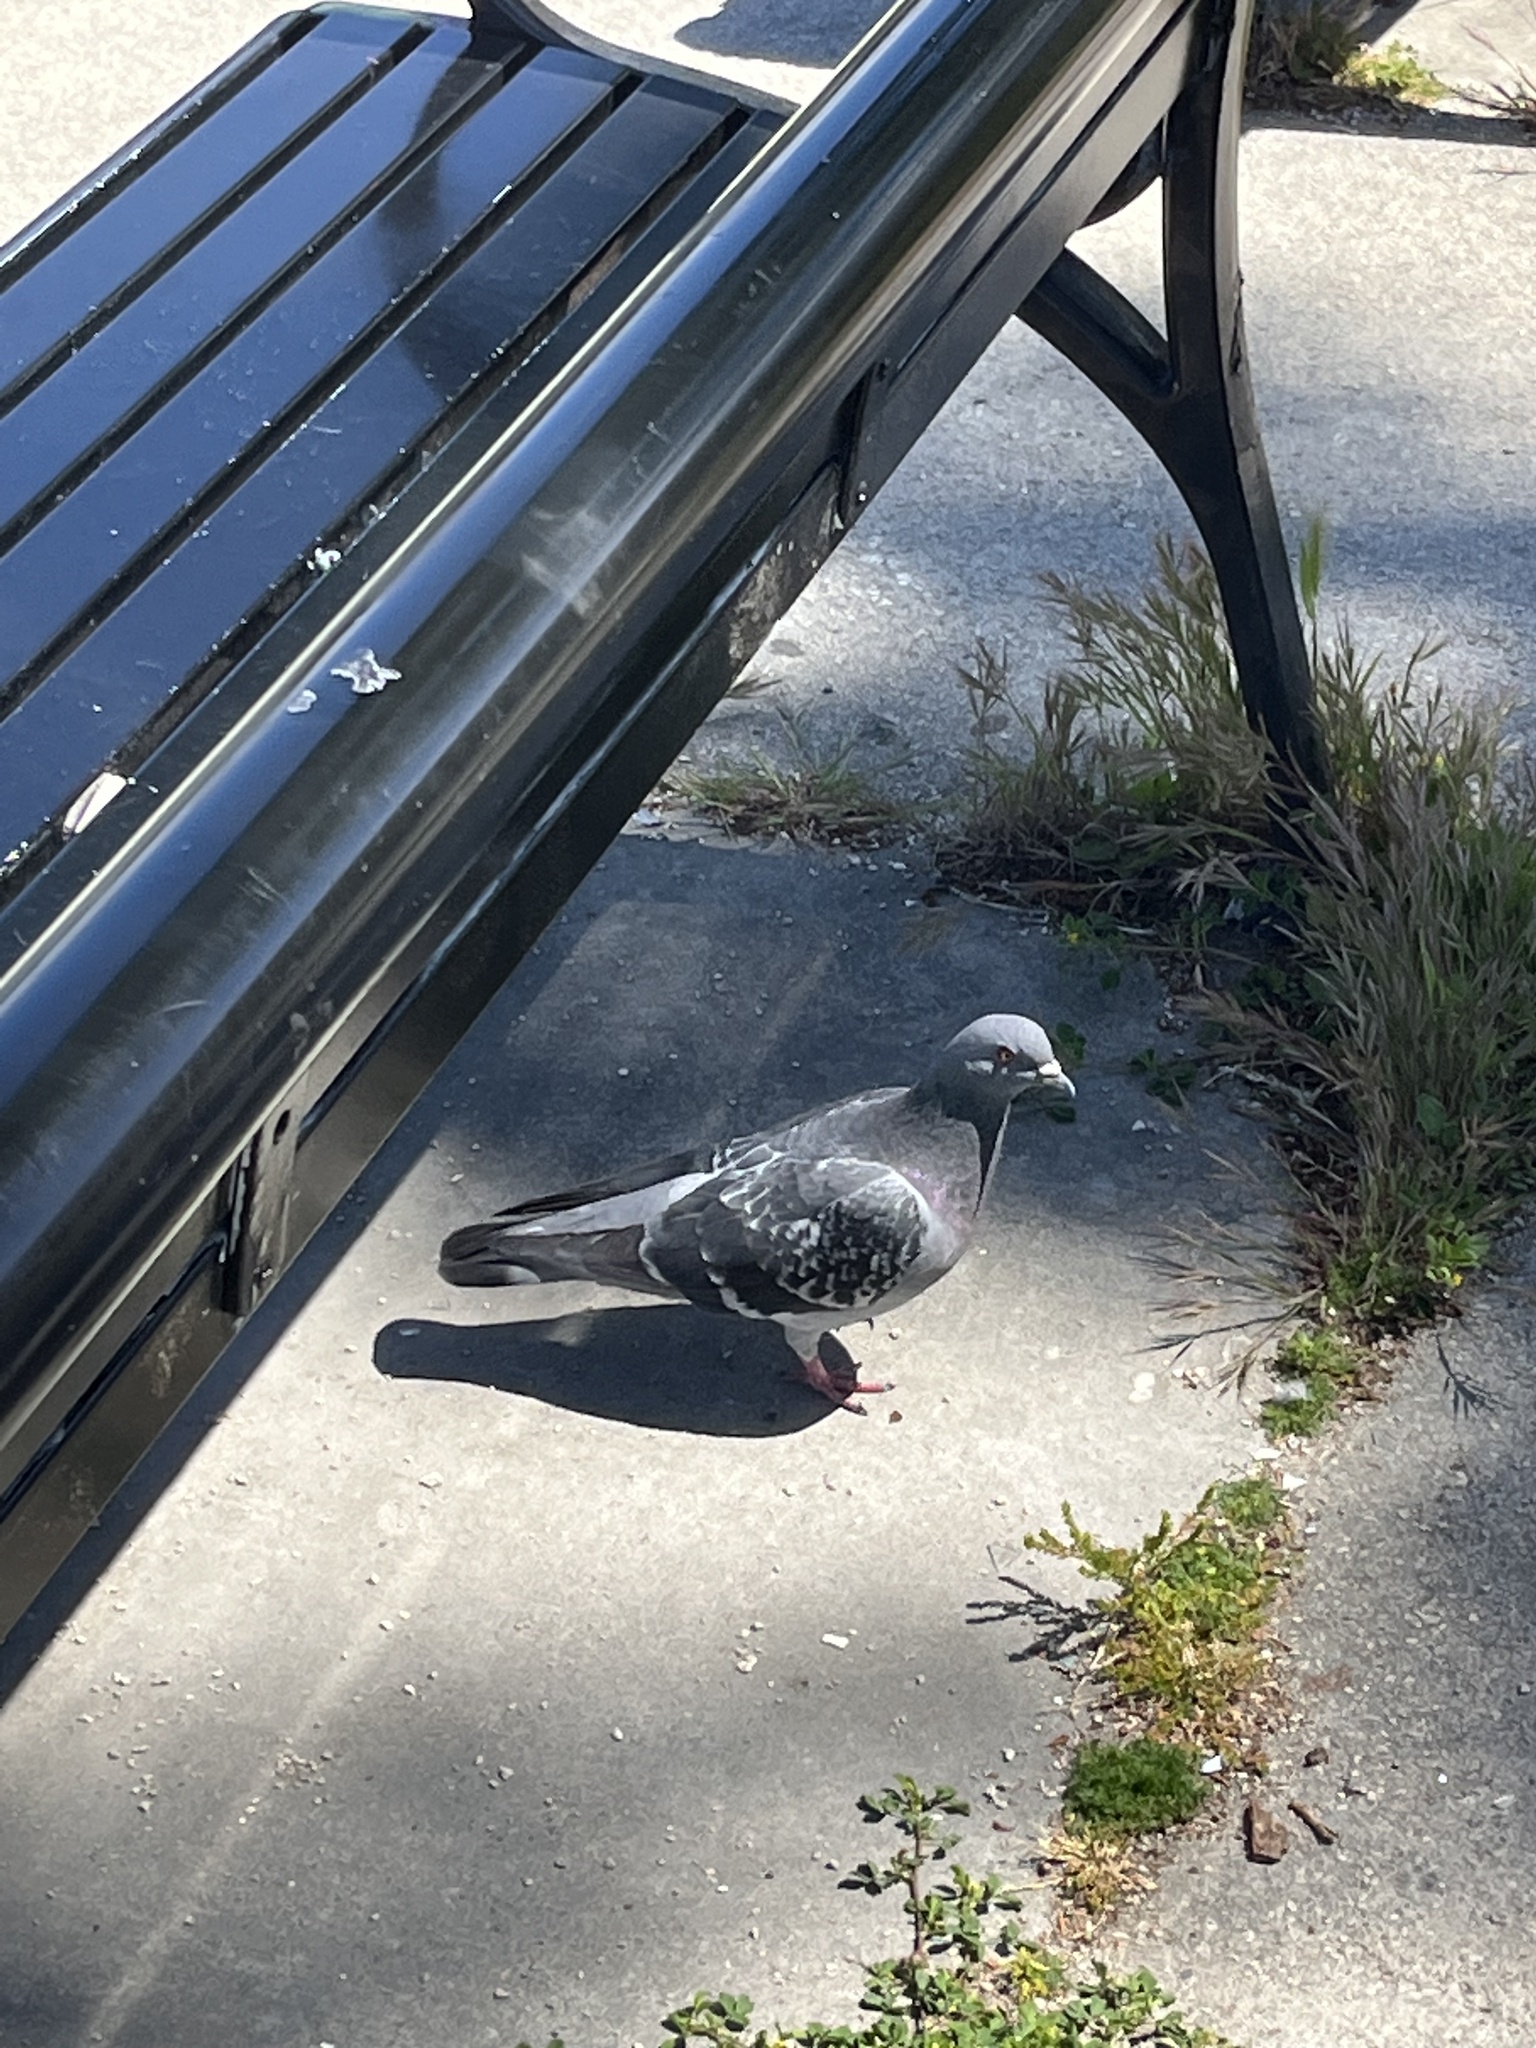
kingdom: Animalia
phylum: Chordata
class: Aves
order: Columbiformes
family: Columbidae
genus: Columba
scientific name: Columba livia
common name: Rock pigeon
